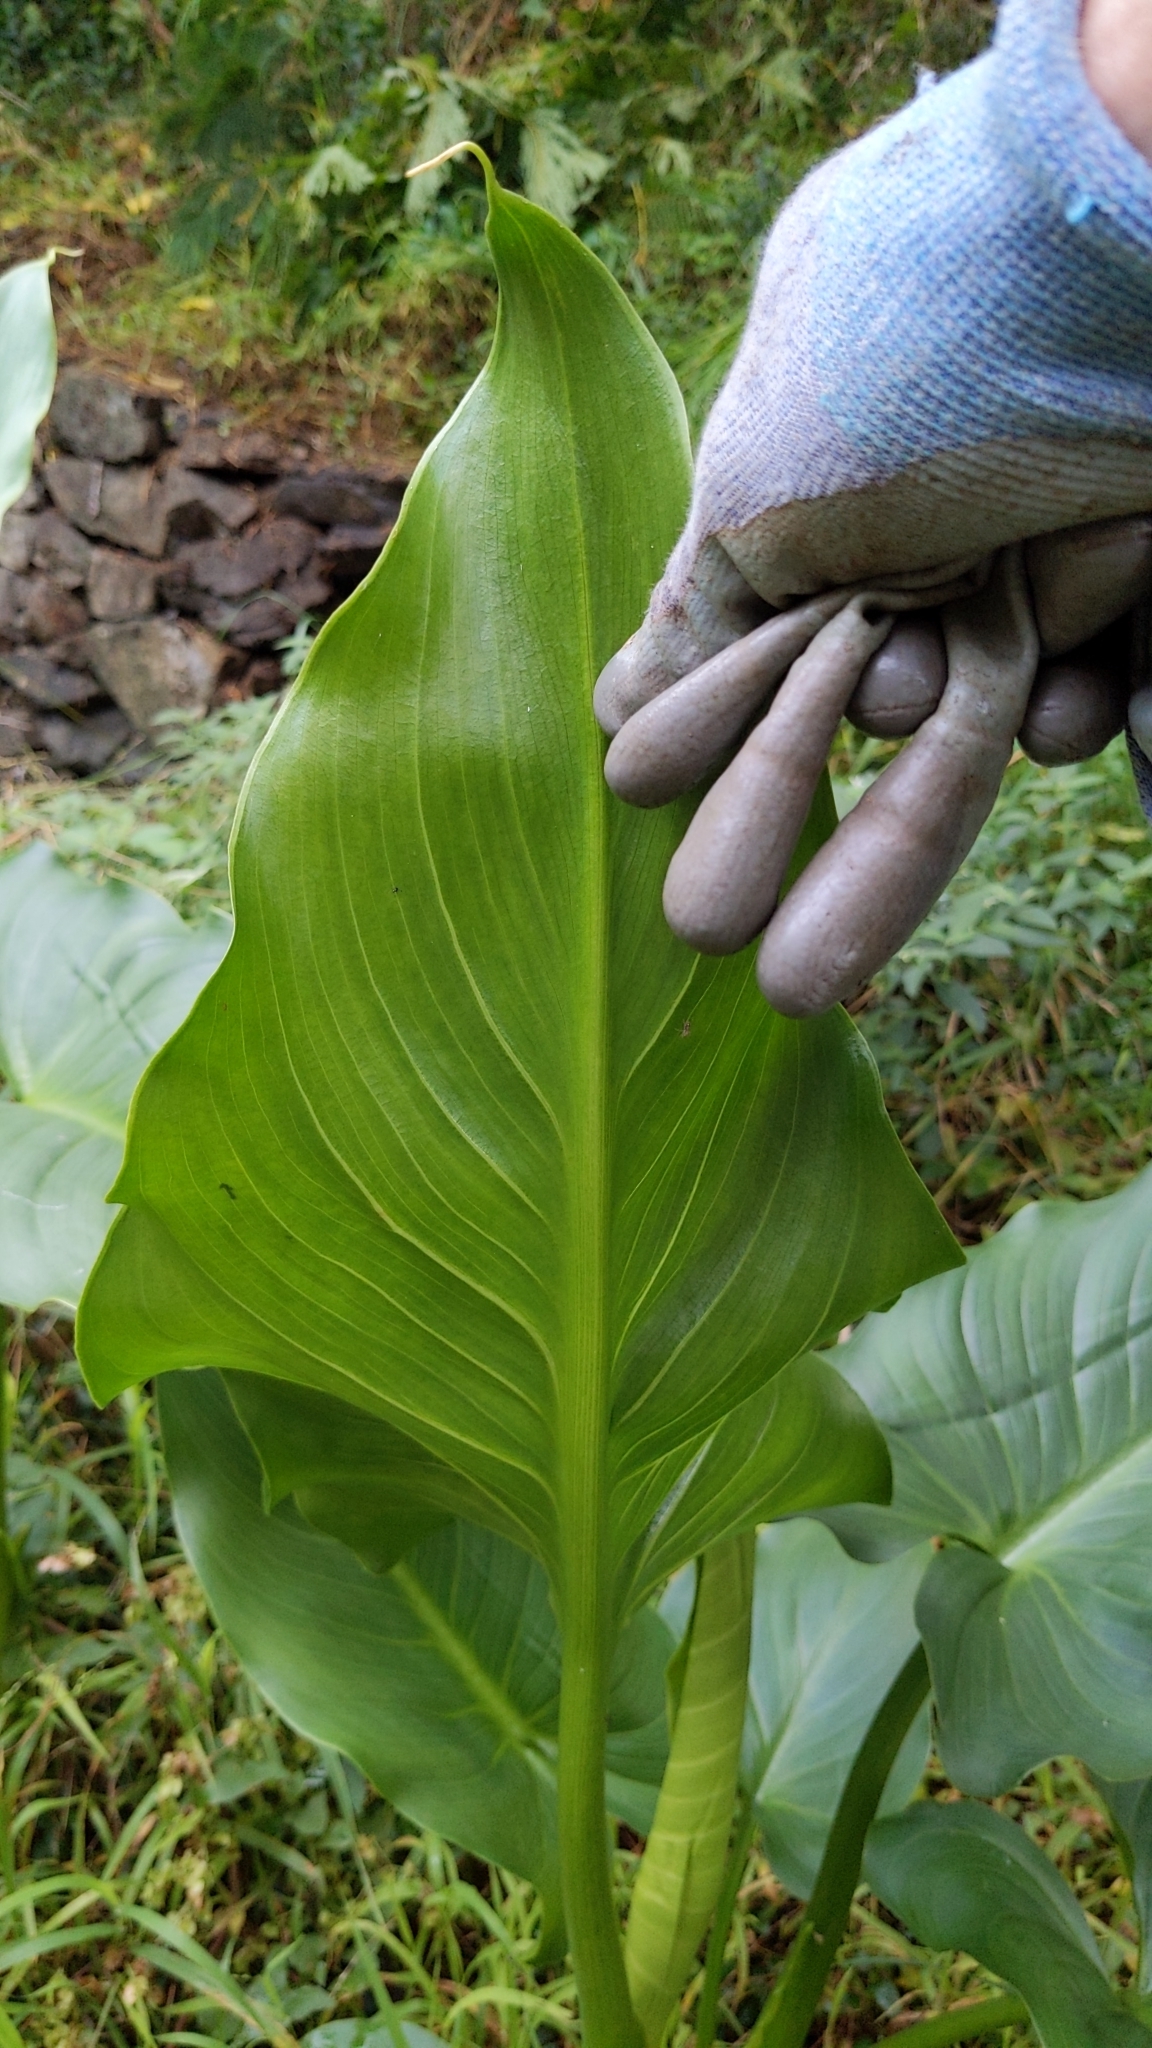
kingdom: Plantae
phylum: Tracheophyta
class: Liliopsida
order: Alismatales
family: Araceae
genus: Zantedeschia
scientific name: Zantedeschia aethiopica
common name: Altar-lily
